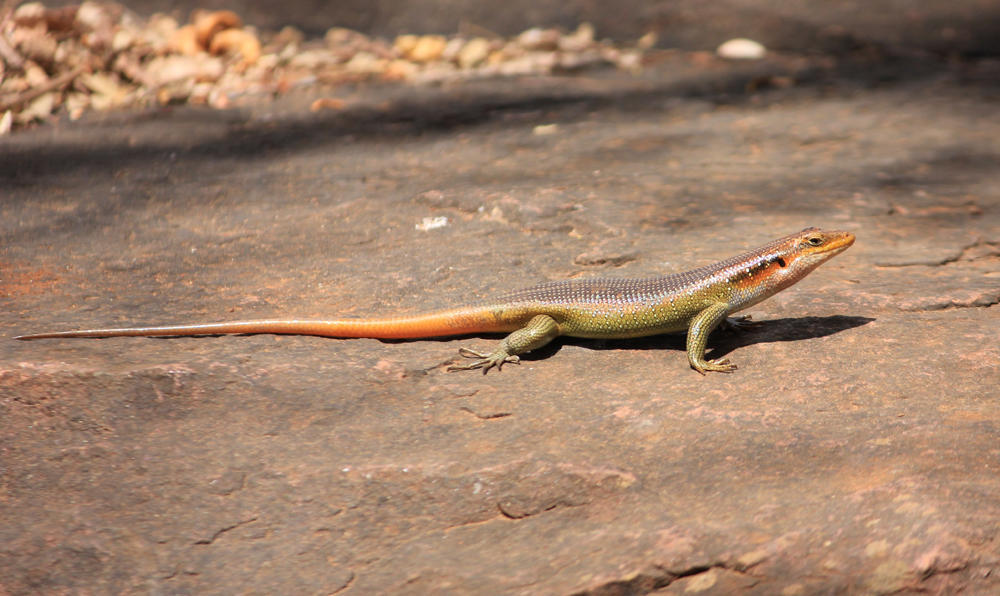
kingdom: Animalia
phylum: Chordata
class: Squamata
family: Scincidae
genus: Trachylepis
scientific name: Trachylepis margaritifera
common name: Rainbow skink
